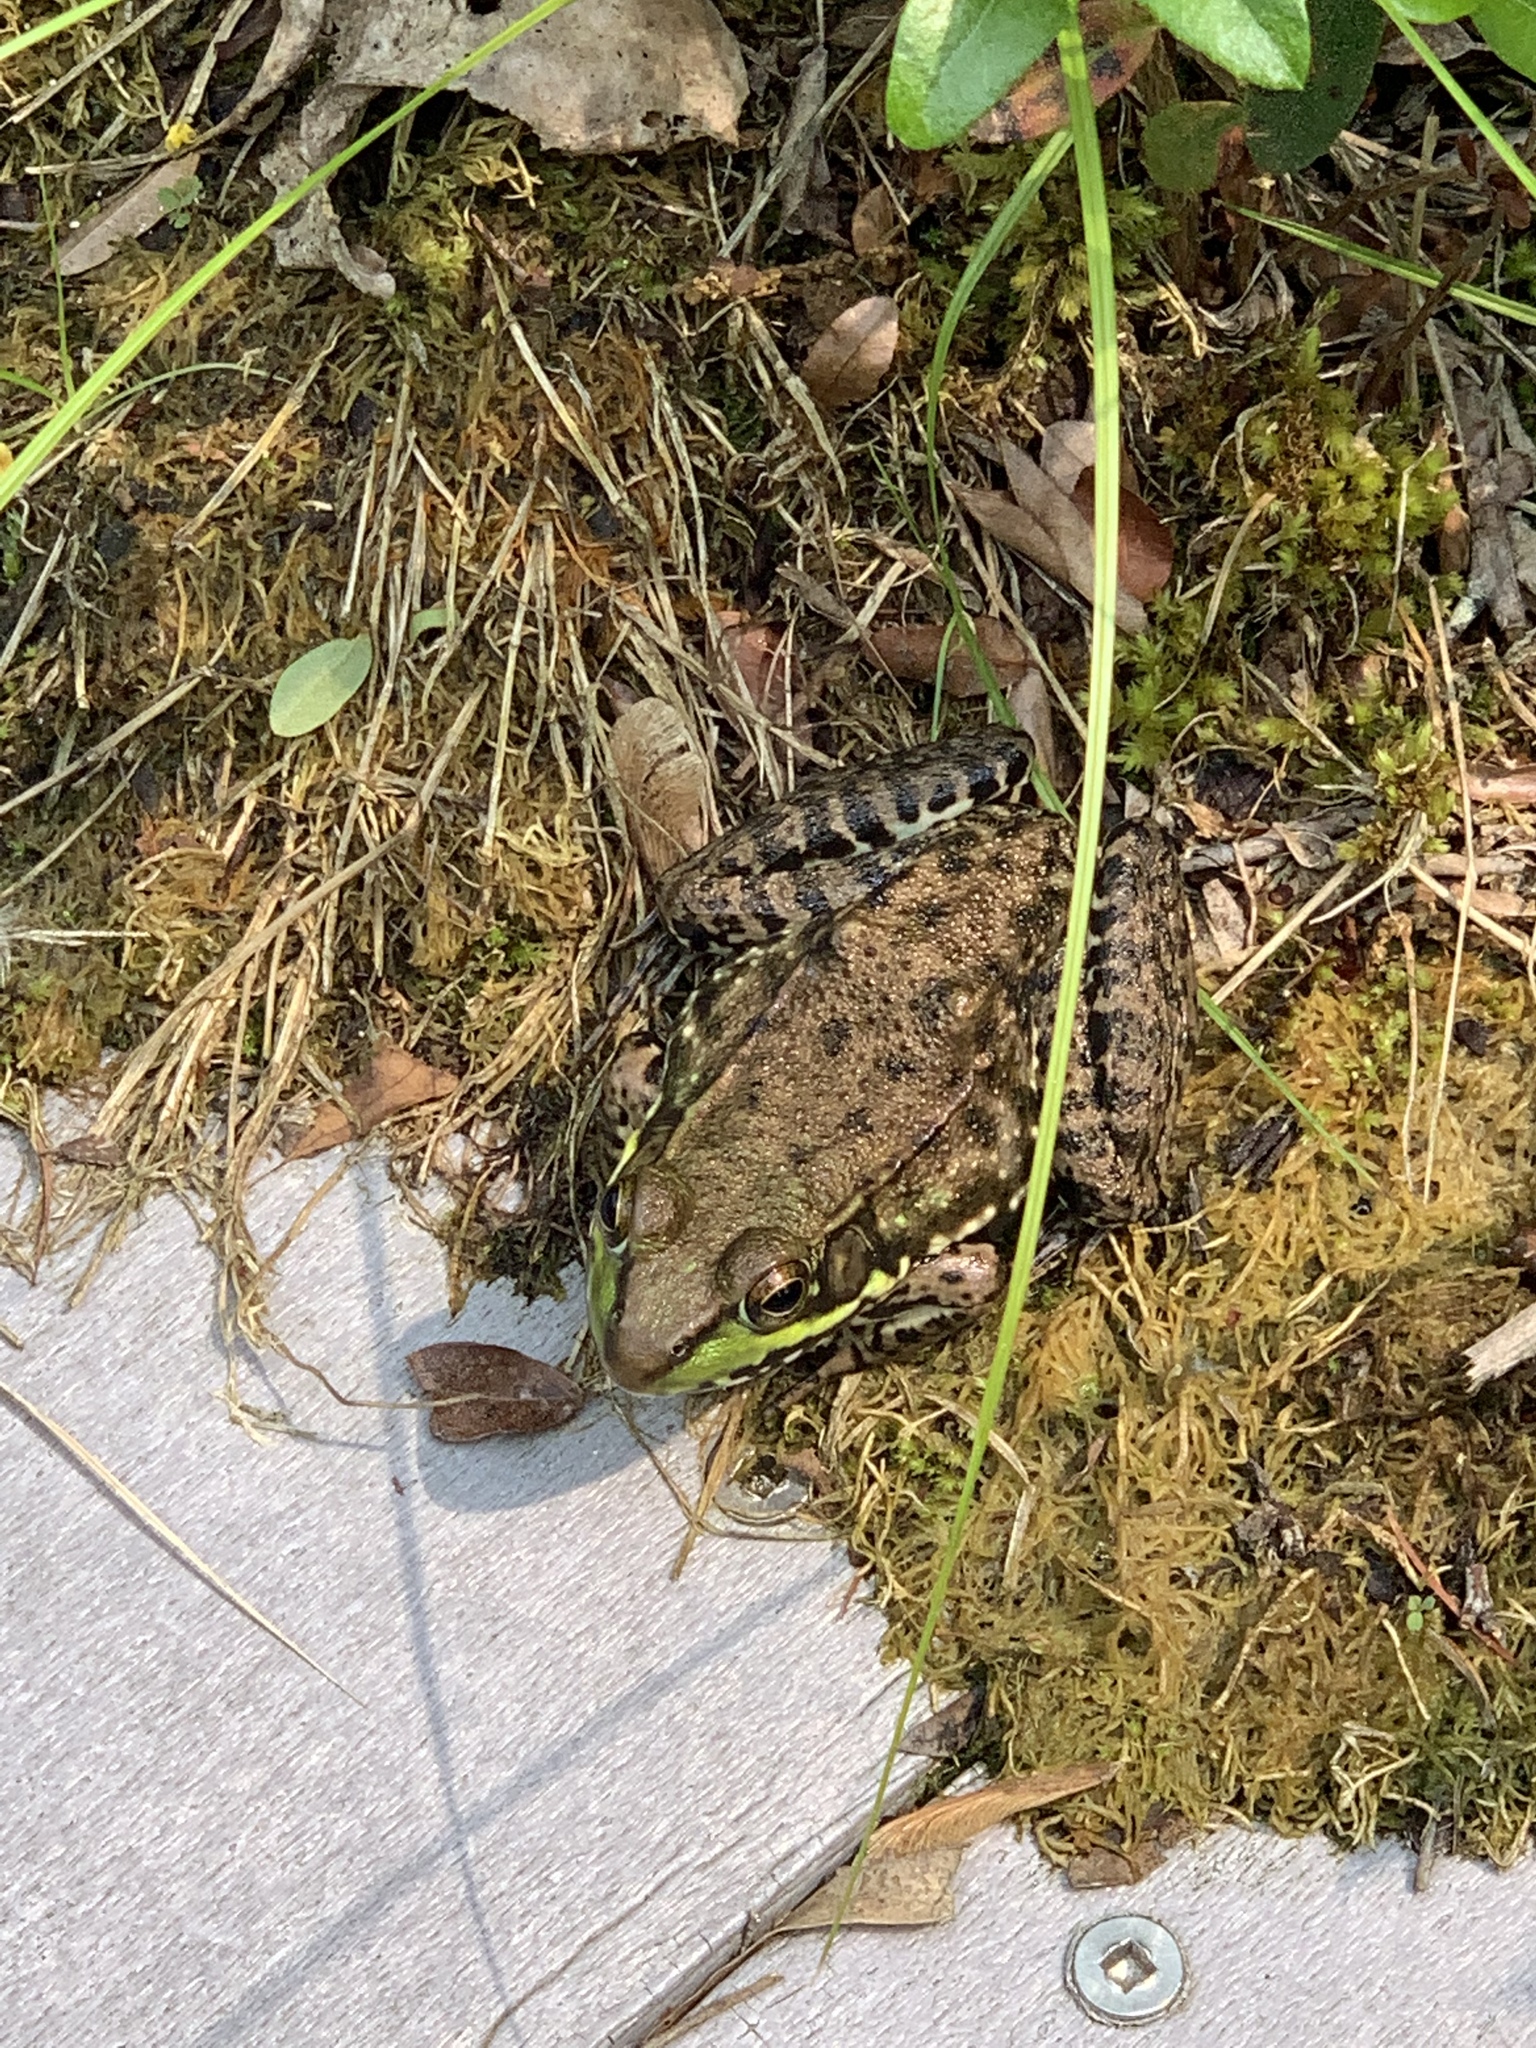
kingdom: Animalia
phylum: Chordata
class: Amphibia
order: Anura
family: Ranidae
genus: Lithobates
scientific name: Lithobates clamitans
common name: Green frog
